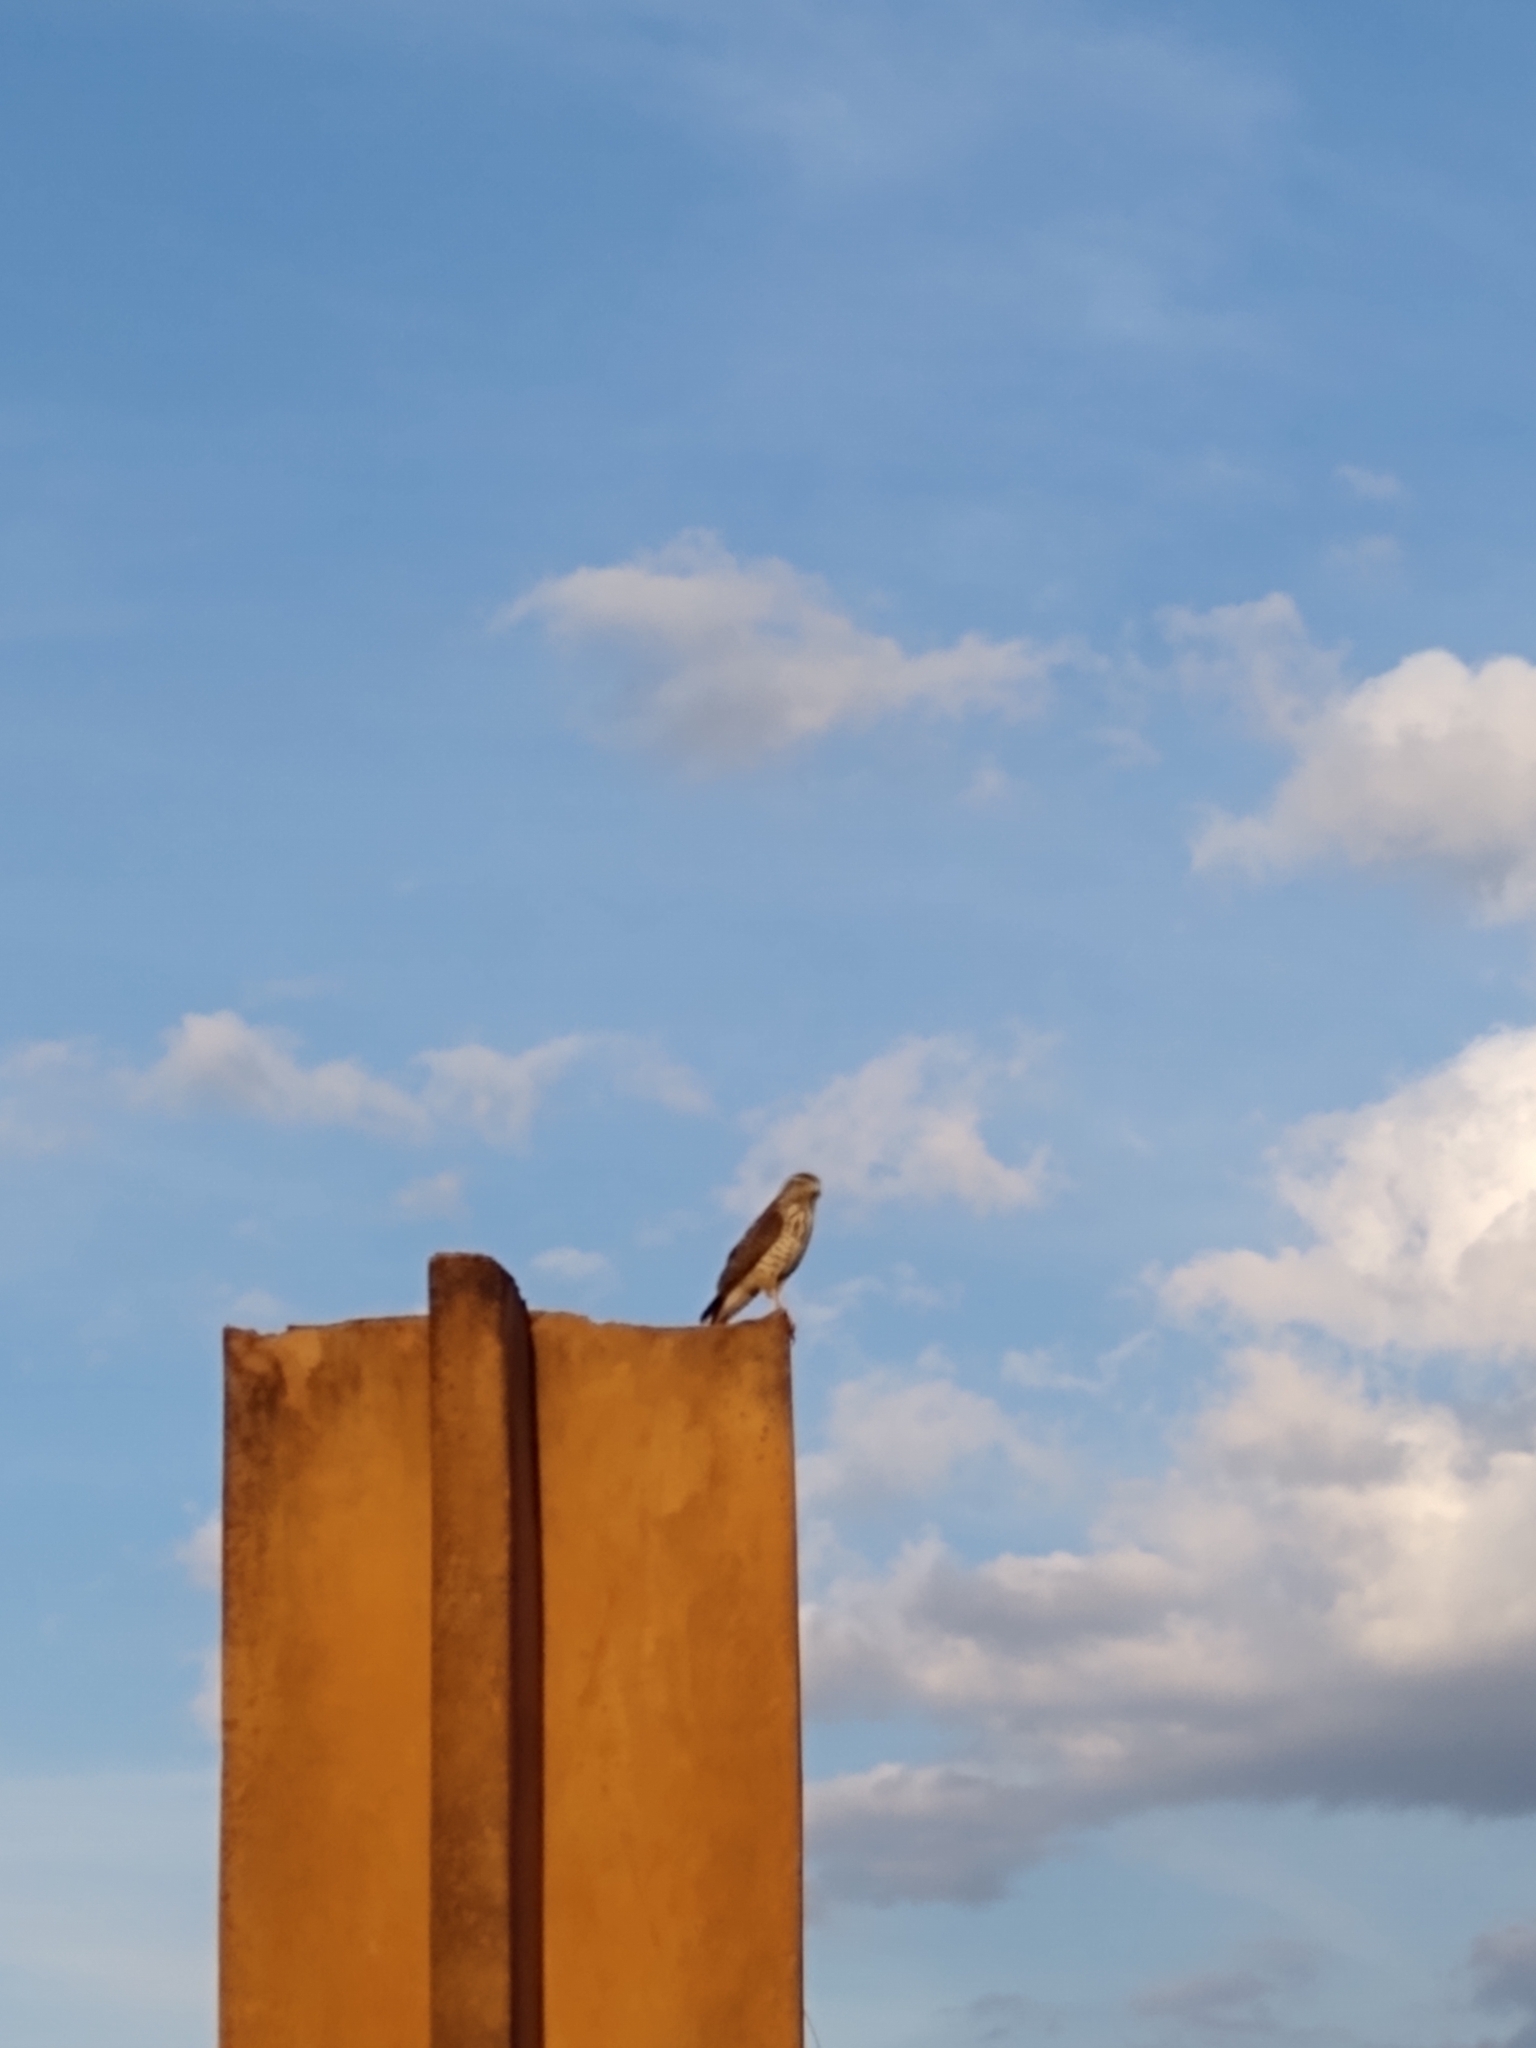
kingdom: Animalia
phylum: Chordata
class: Aves
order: Accipitriformes
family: Accipitridae
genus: Rupornis
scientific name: Rupornis magnirostris
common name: Roadside hawk
